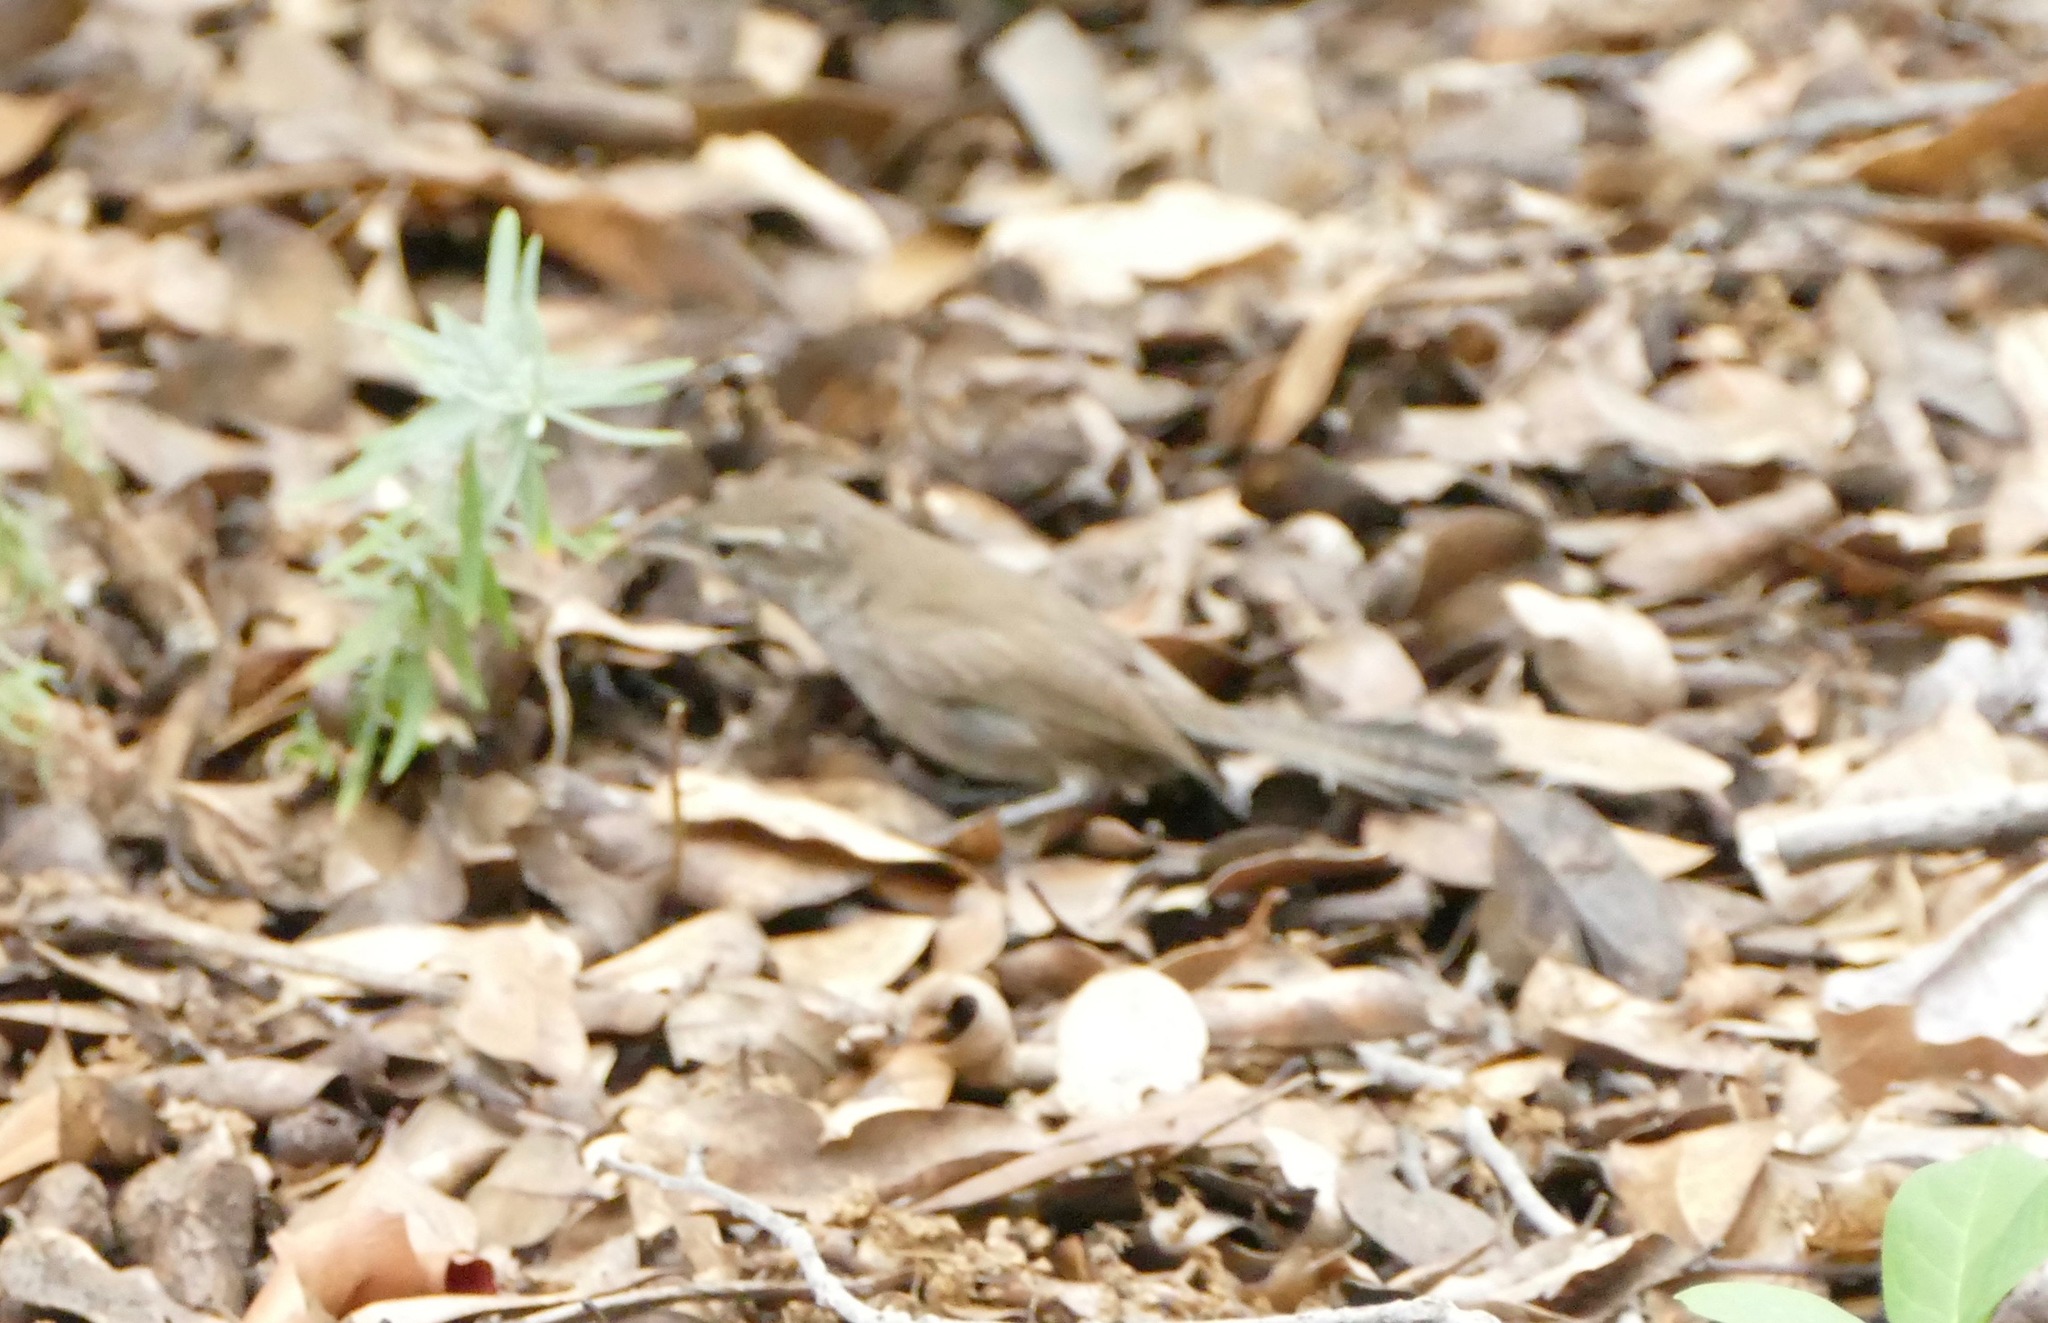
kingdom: Animalia
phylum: Chordata
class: Aves
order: Passeriformes
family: Troglodytidae
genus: Thryomanes
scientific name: Thryomanes bewickii
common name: Bewick's wren
